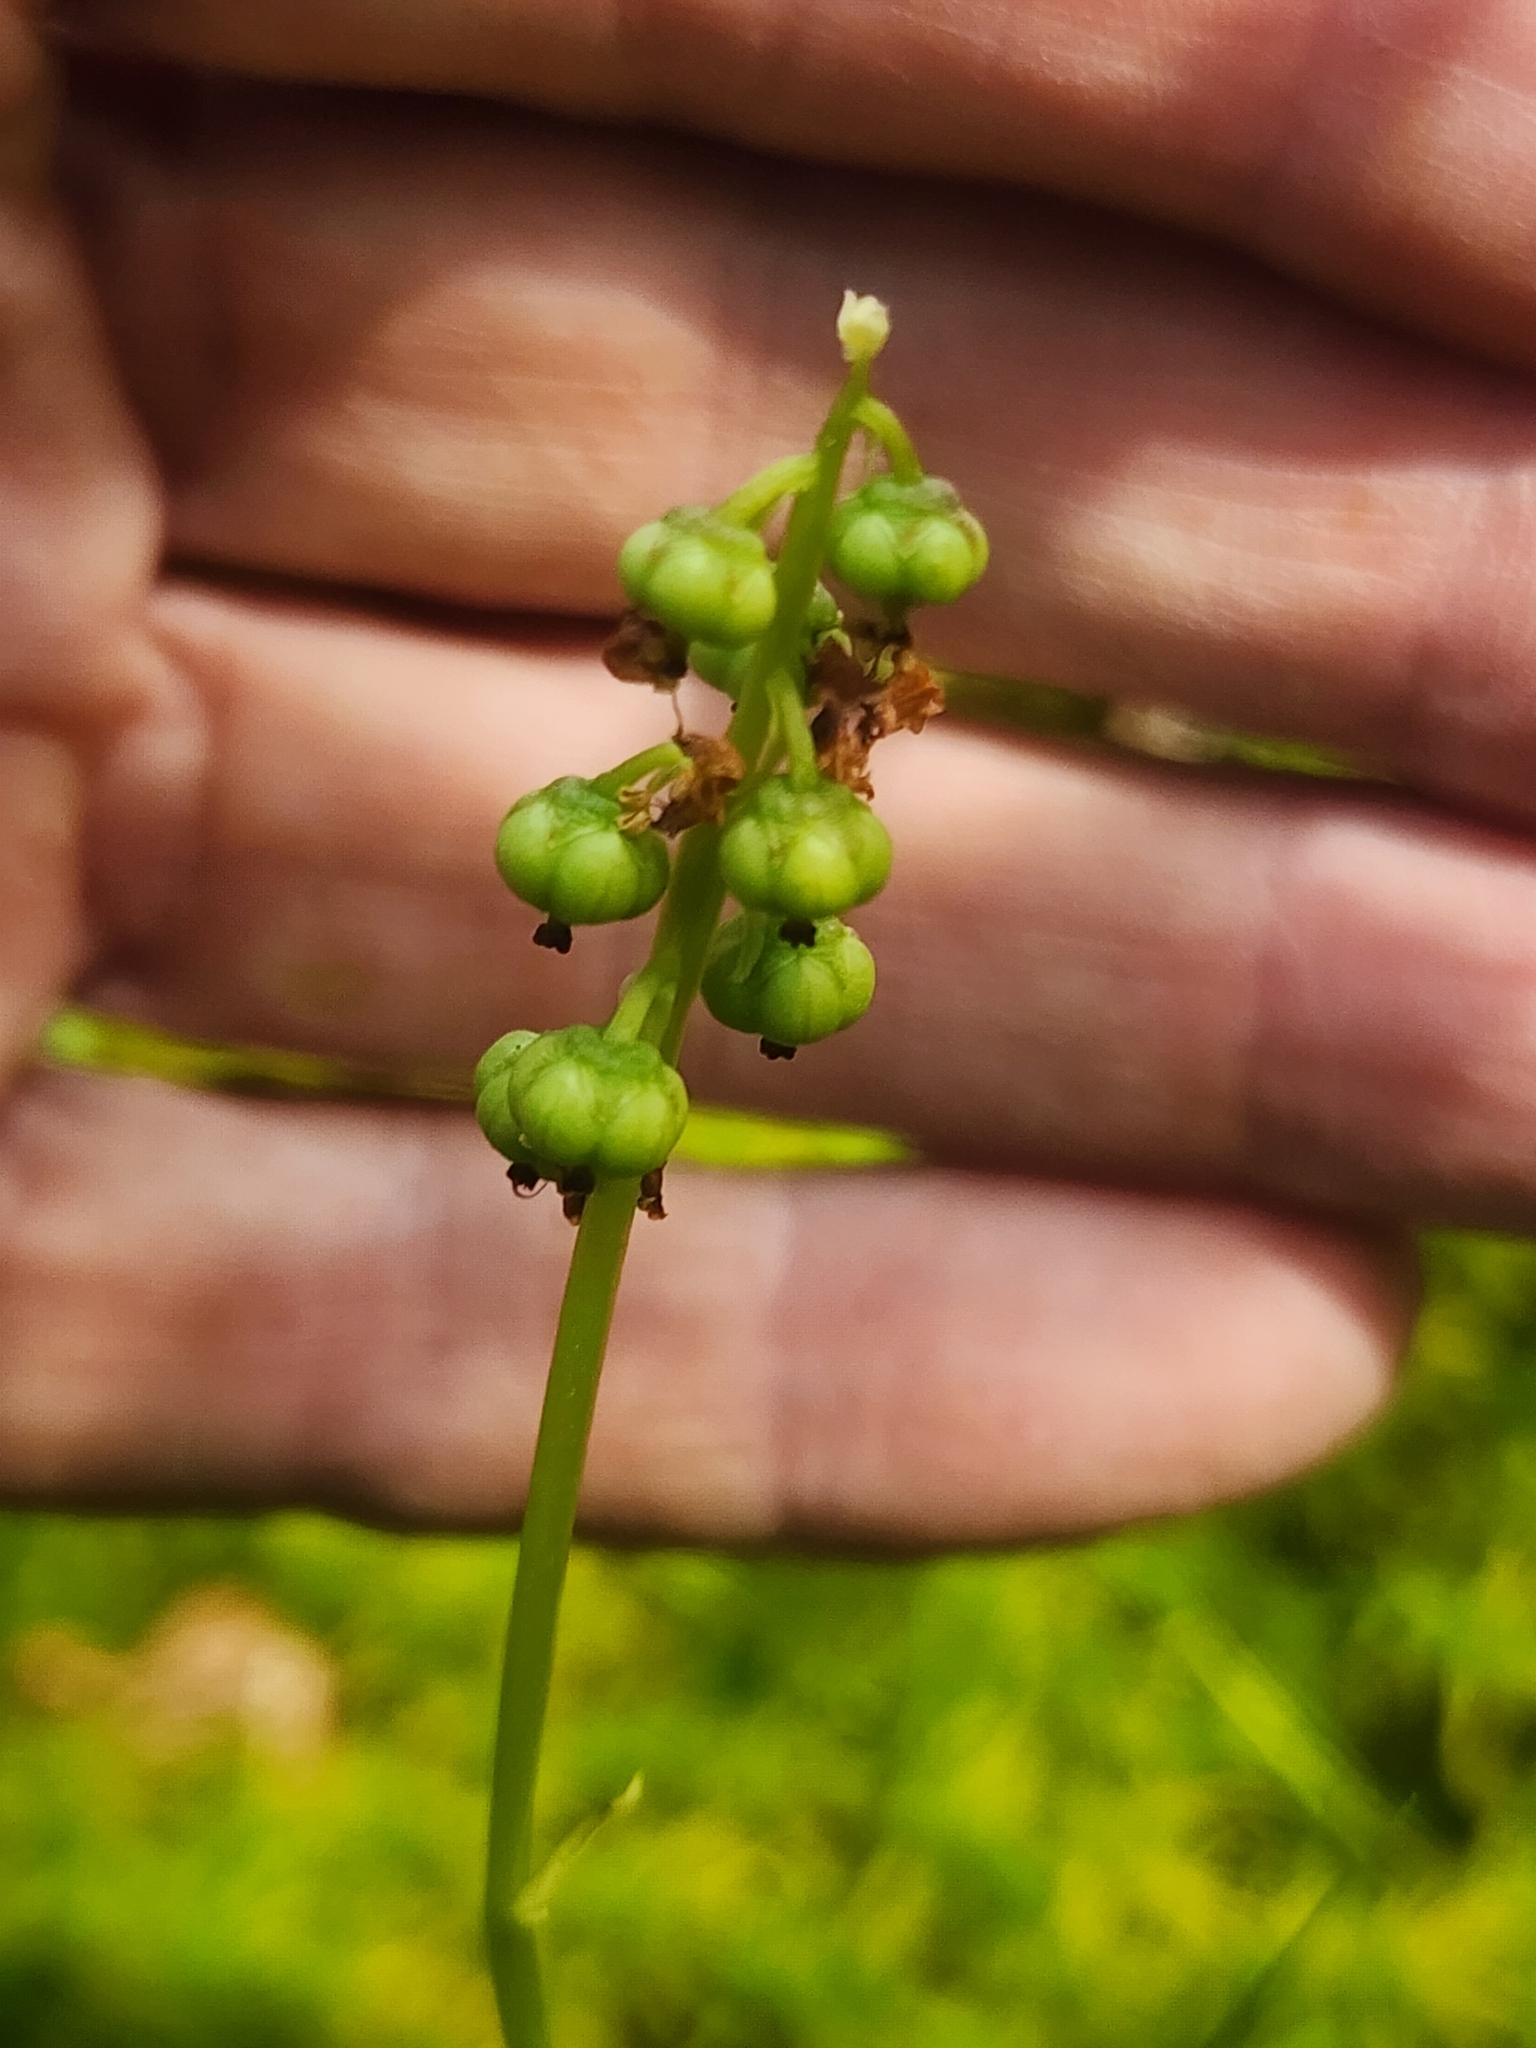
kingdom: Plantae
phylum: Tracheophyta
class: Magnoliopsida
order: Ericales
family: Ericaceae
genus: Pyrola
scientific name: Pyrola minor
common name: Common wintergreen
